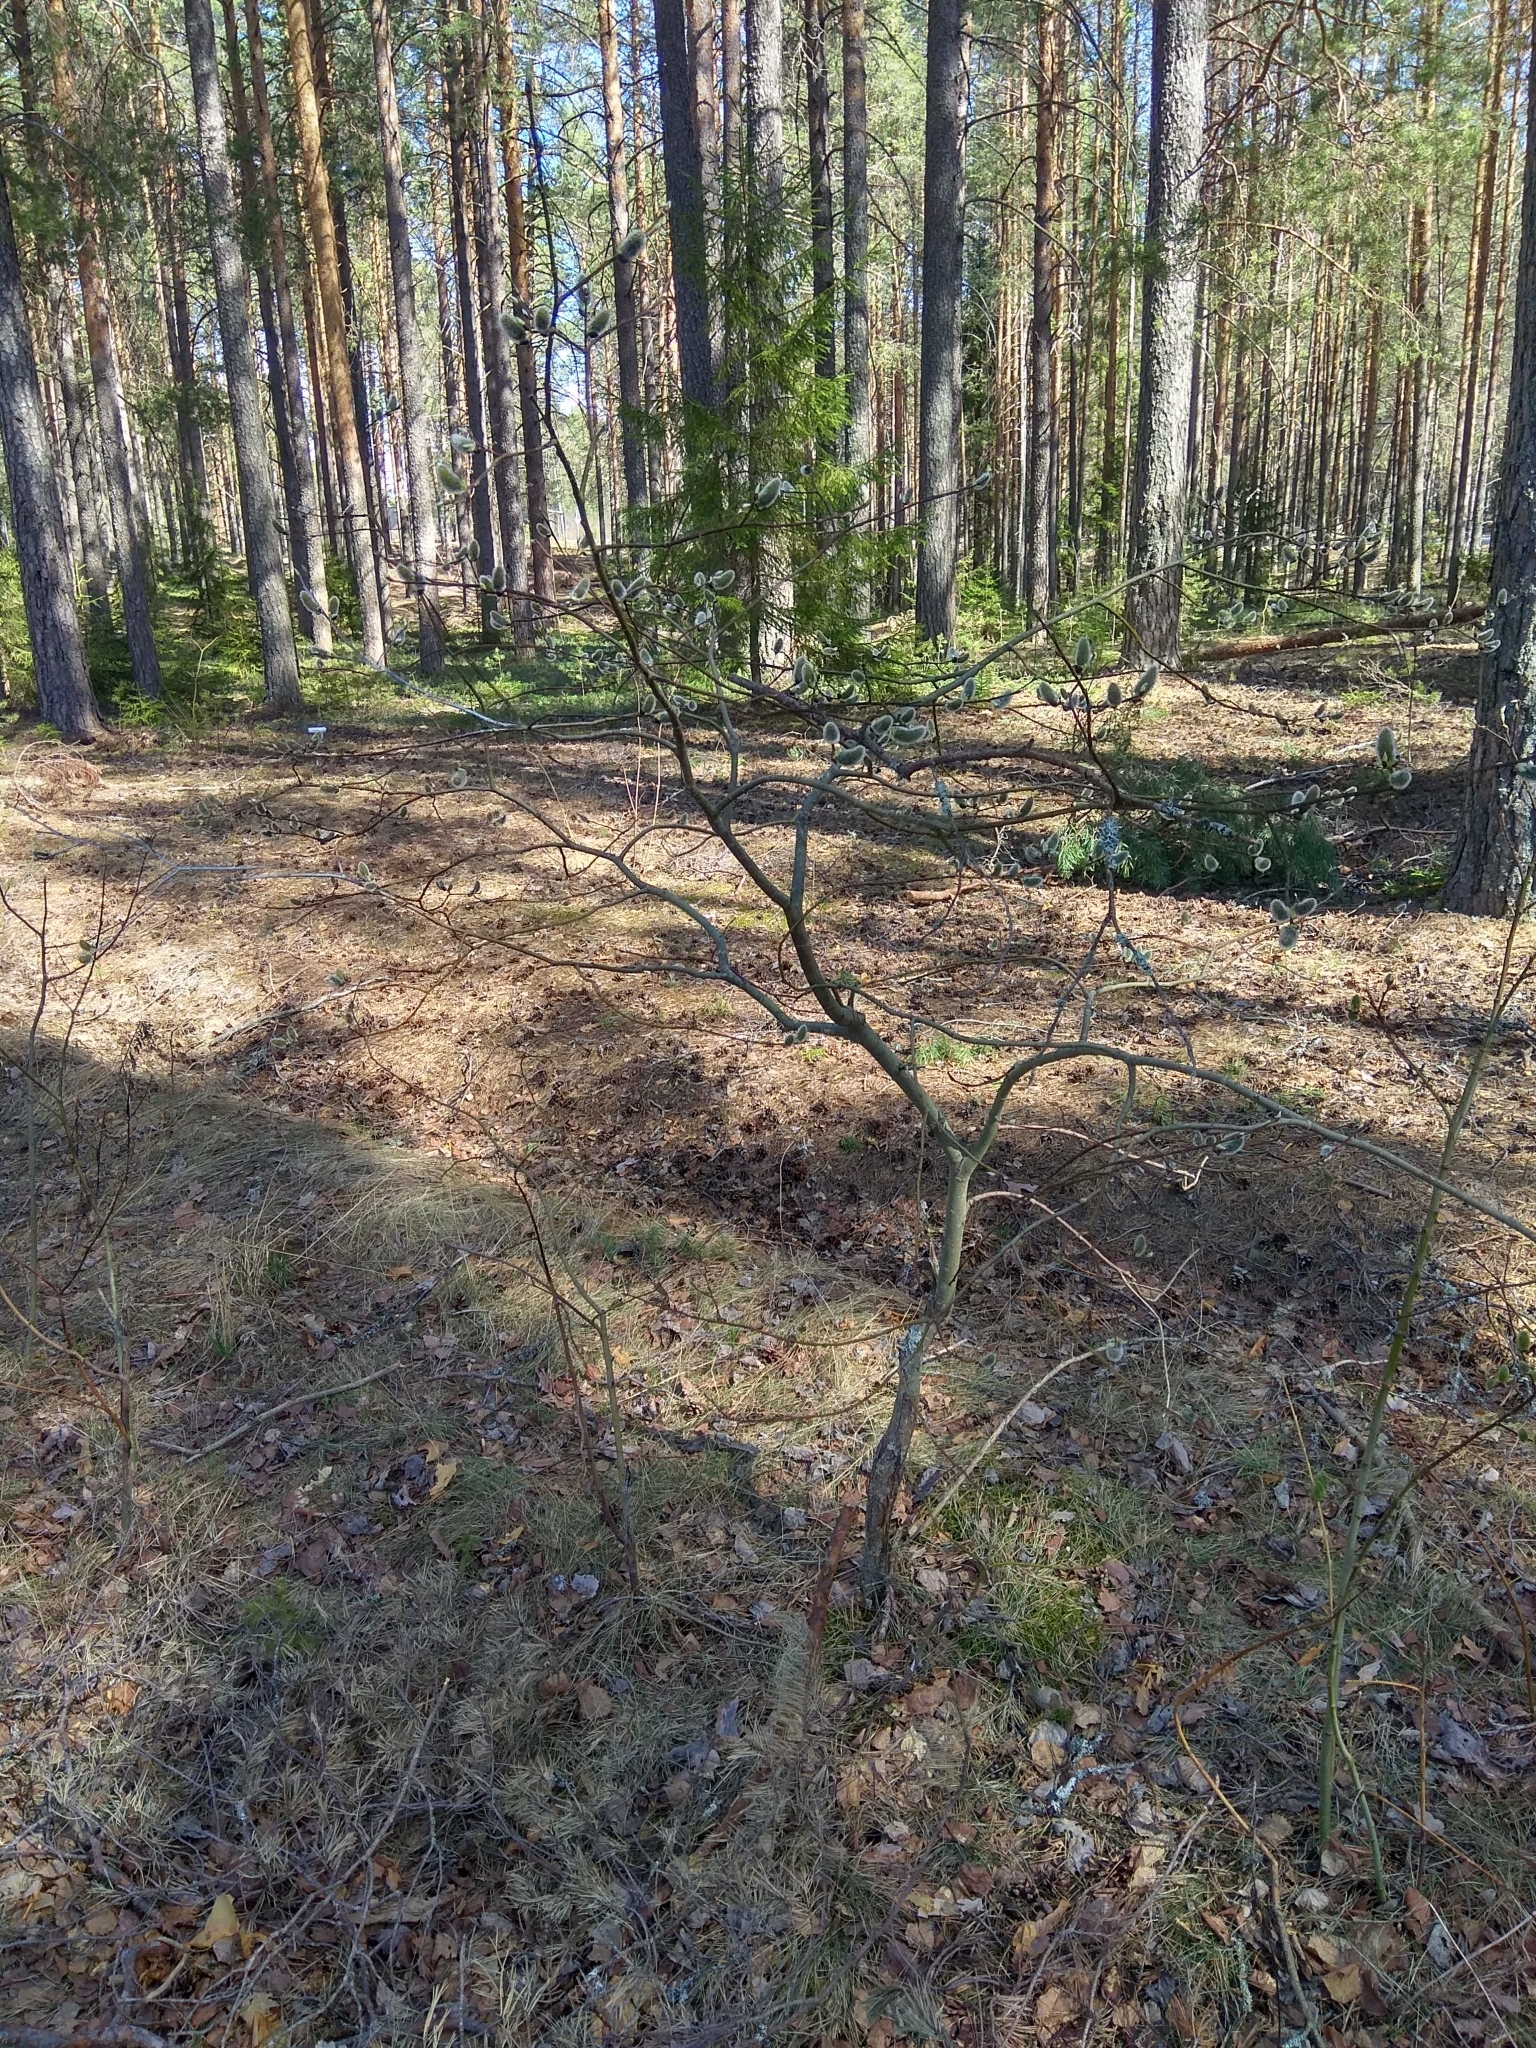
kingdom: Plantae
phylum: Tracheophyta
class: Magnoliopsida
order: Malpighiales
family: Salicaceae
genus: Salix
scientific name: Salix caprea
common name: Goat willow
